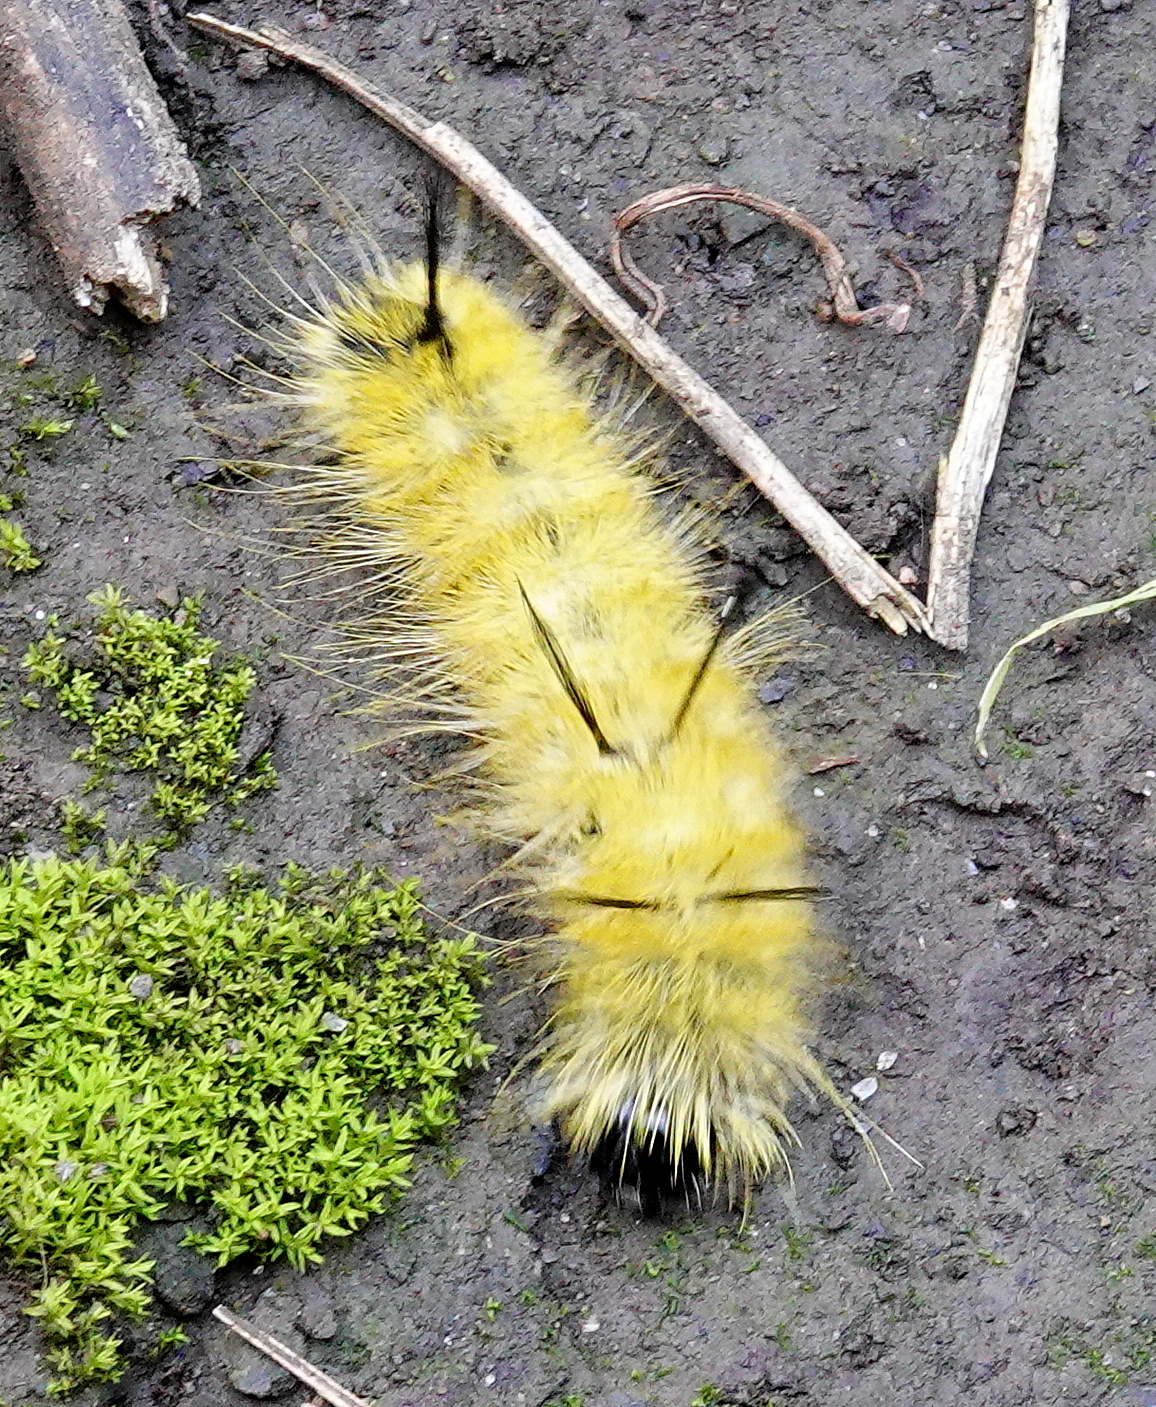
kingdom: Animalia
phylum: Arthropoda
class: Insecta
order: Lepidoptera
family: Noctuidae
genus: Acronicta
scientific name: Acronicta americana
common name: American dagger
